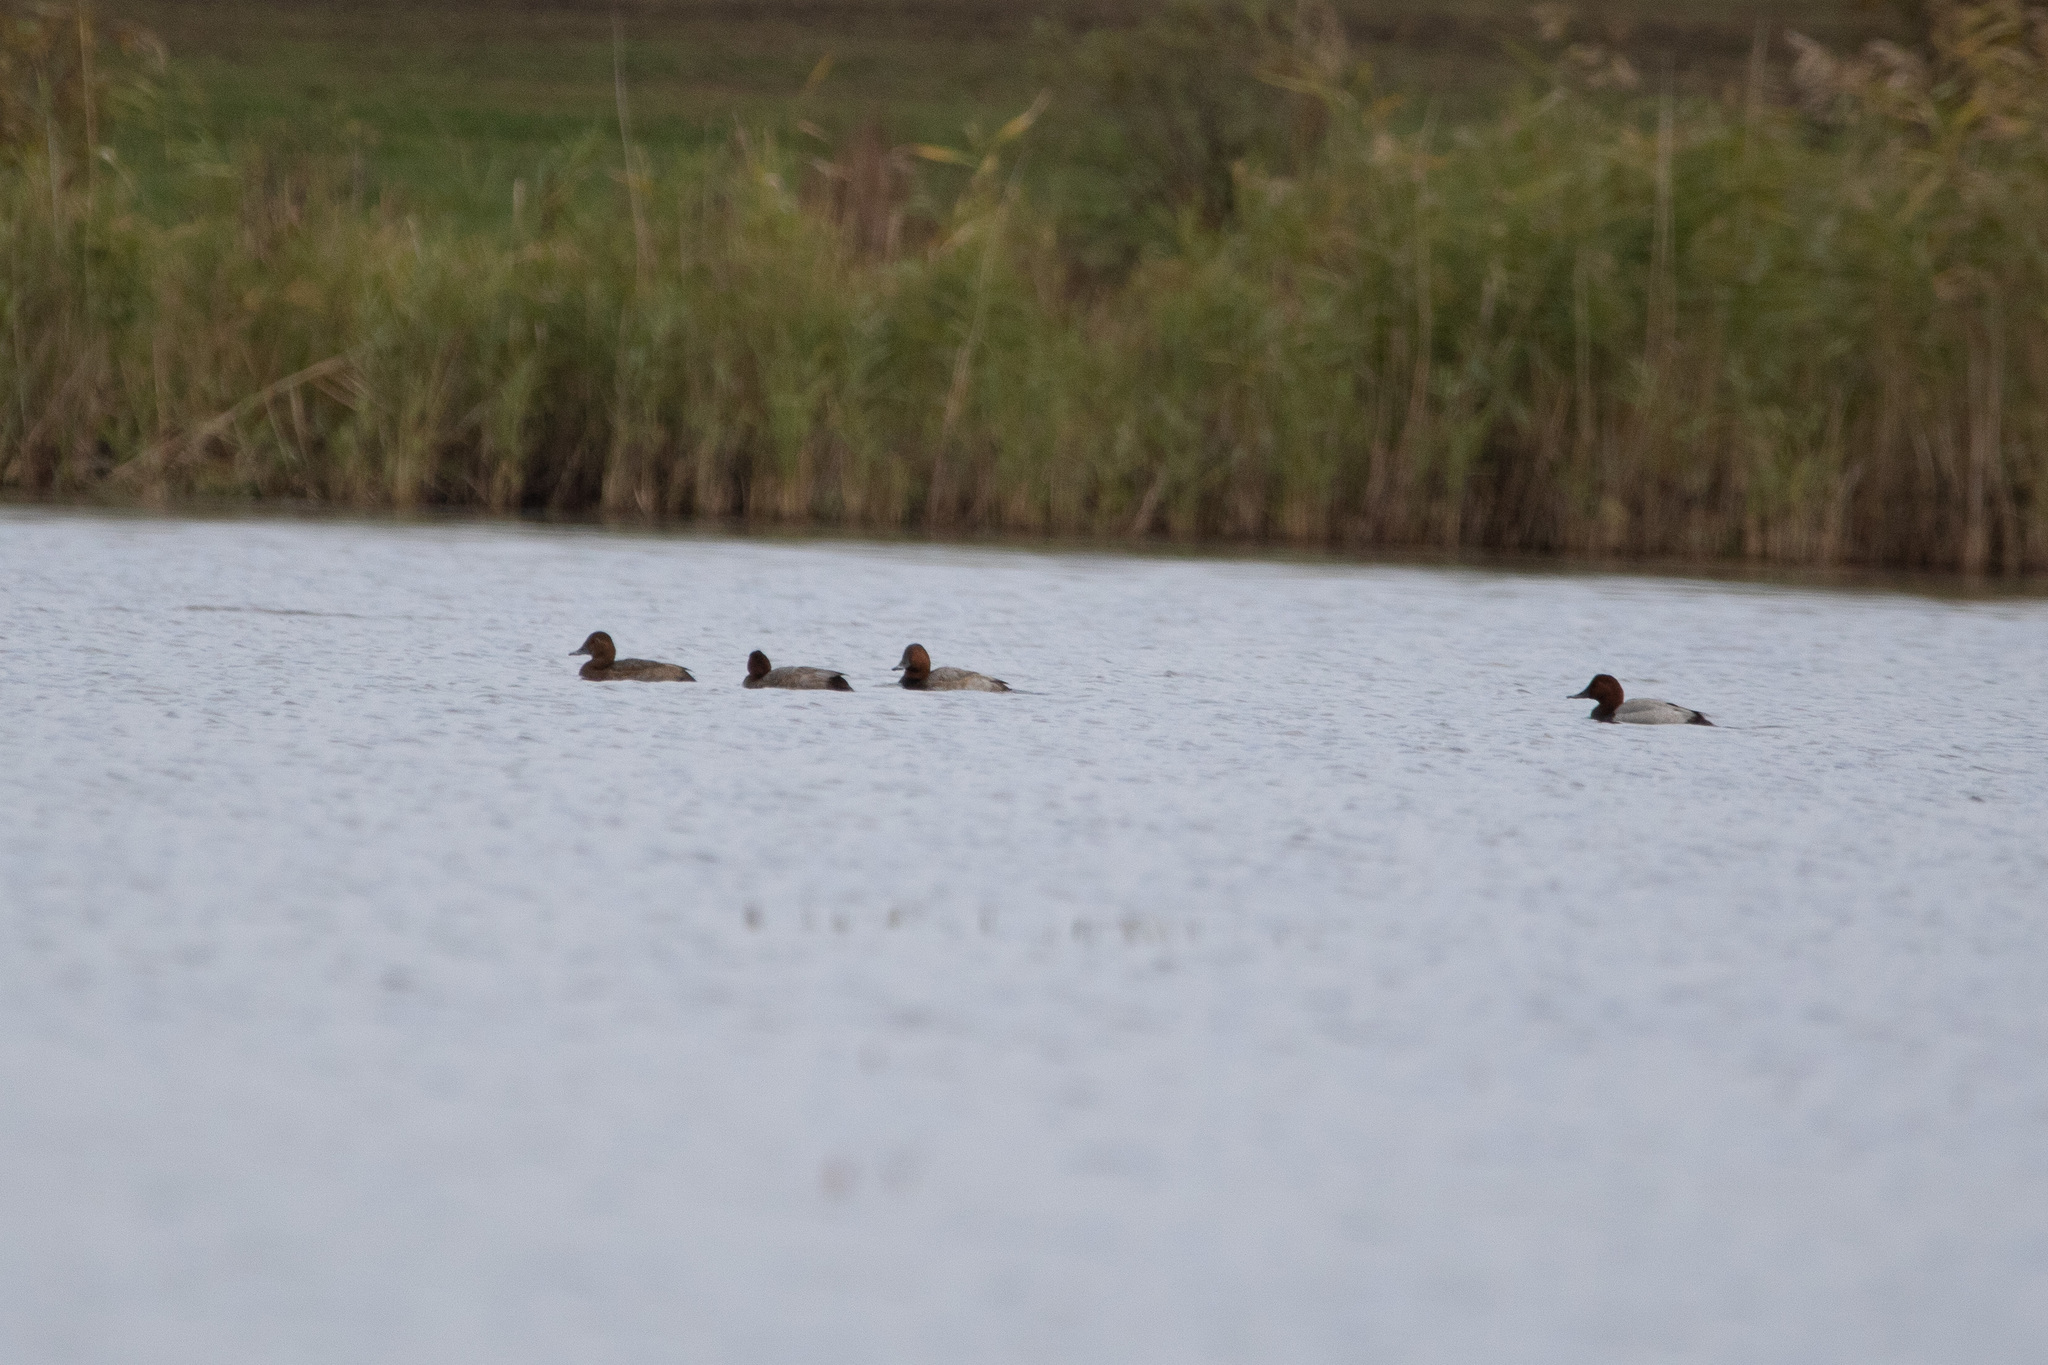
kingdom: Animalia
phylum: Chordata
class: Aves
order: Anseriformes
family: Anatidae
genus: Aythya
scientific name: Aythya ferina
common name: Common pochard
